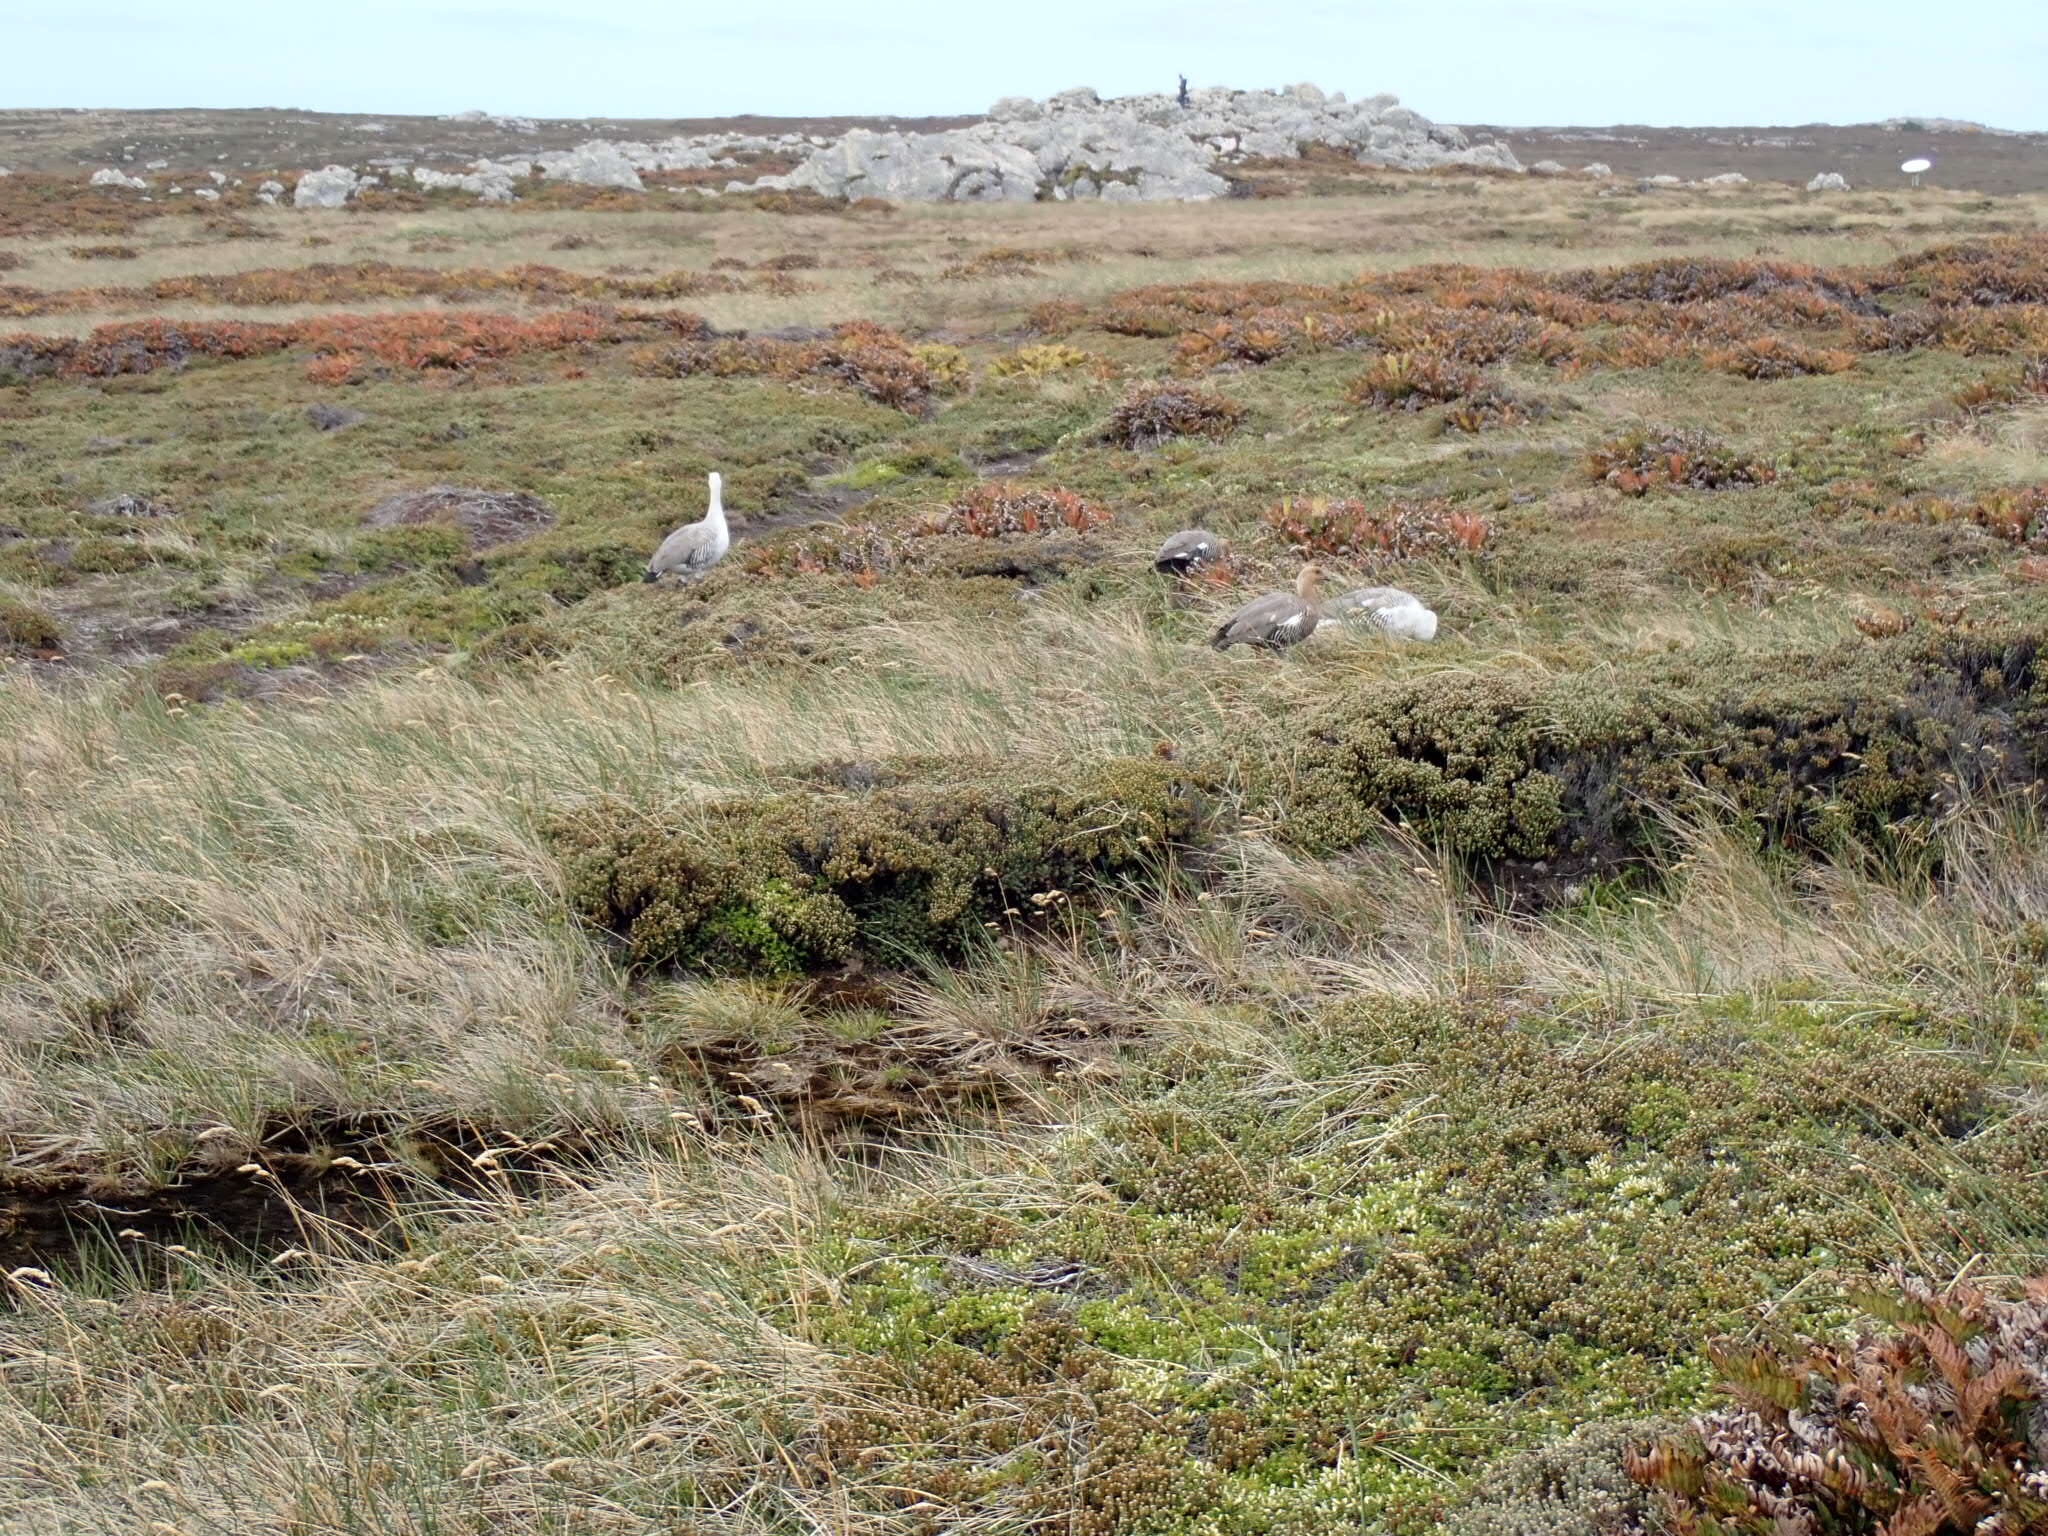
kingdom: Animalia
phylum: Chordata
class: Aves
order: Anseriformes
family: Anatidae
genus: Chloephaga
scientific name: Chloephaga picta
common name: Upland goose
